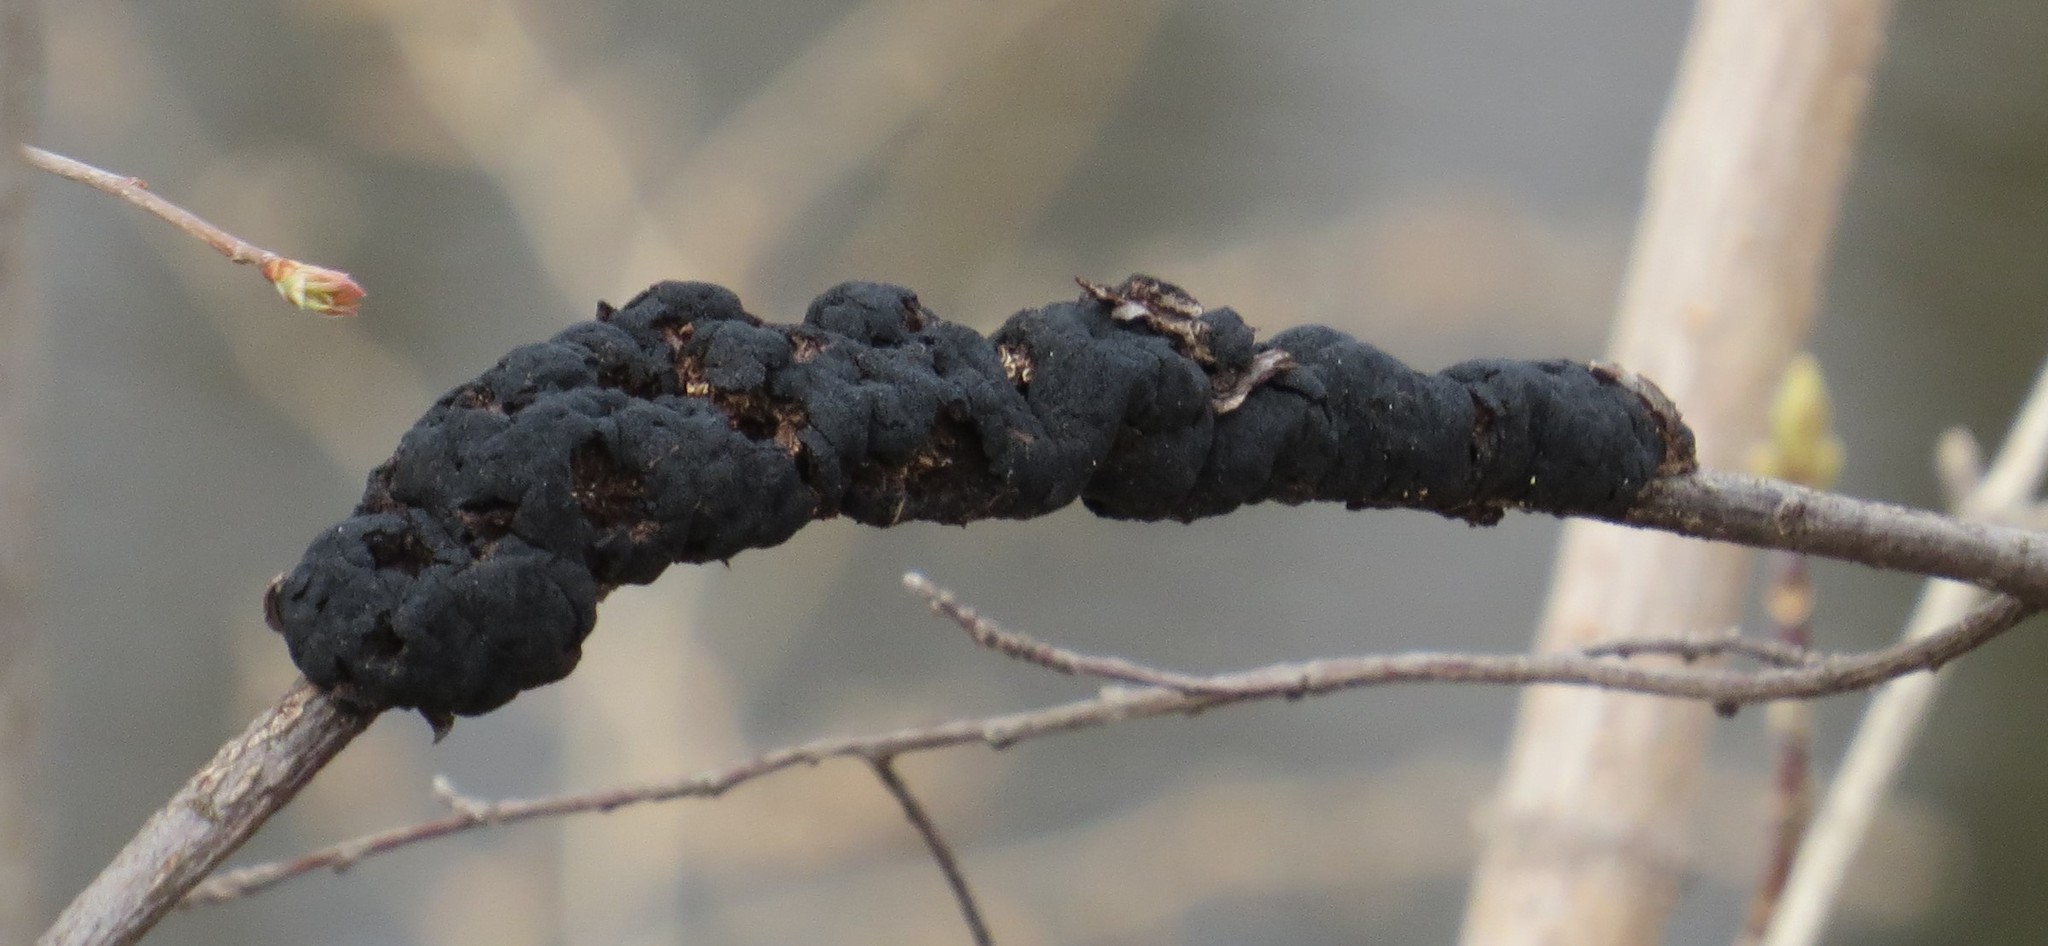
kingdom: Fungi
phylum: Ascomycota
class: Dothideomycetes
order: Venturiales
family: Venturiaceae
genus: Apiosporina
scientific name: Apiosporina morbosa
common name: Black knot
